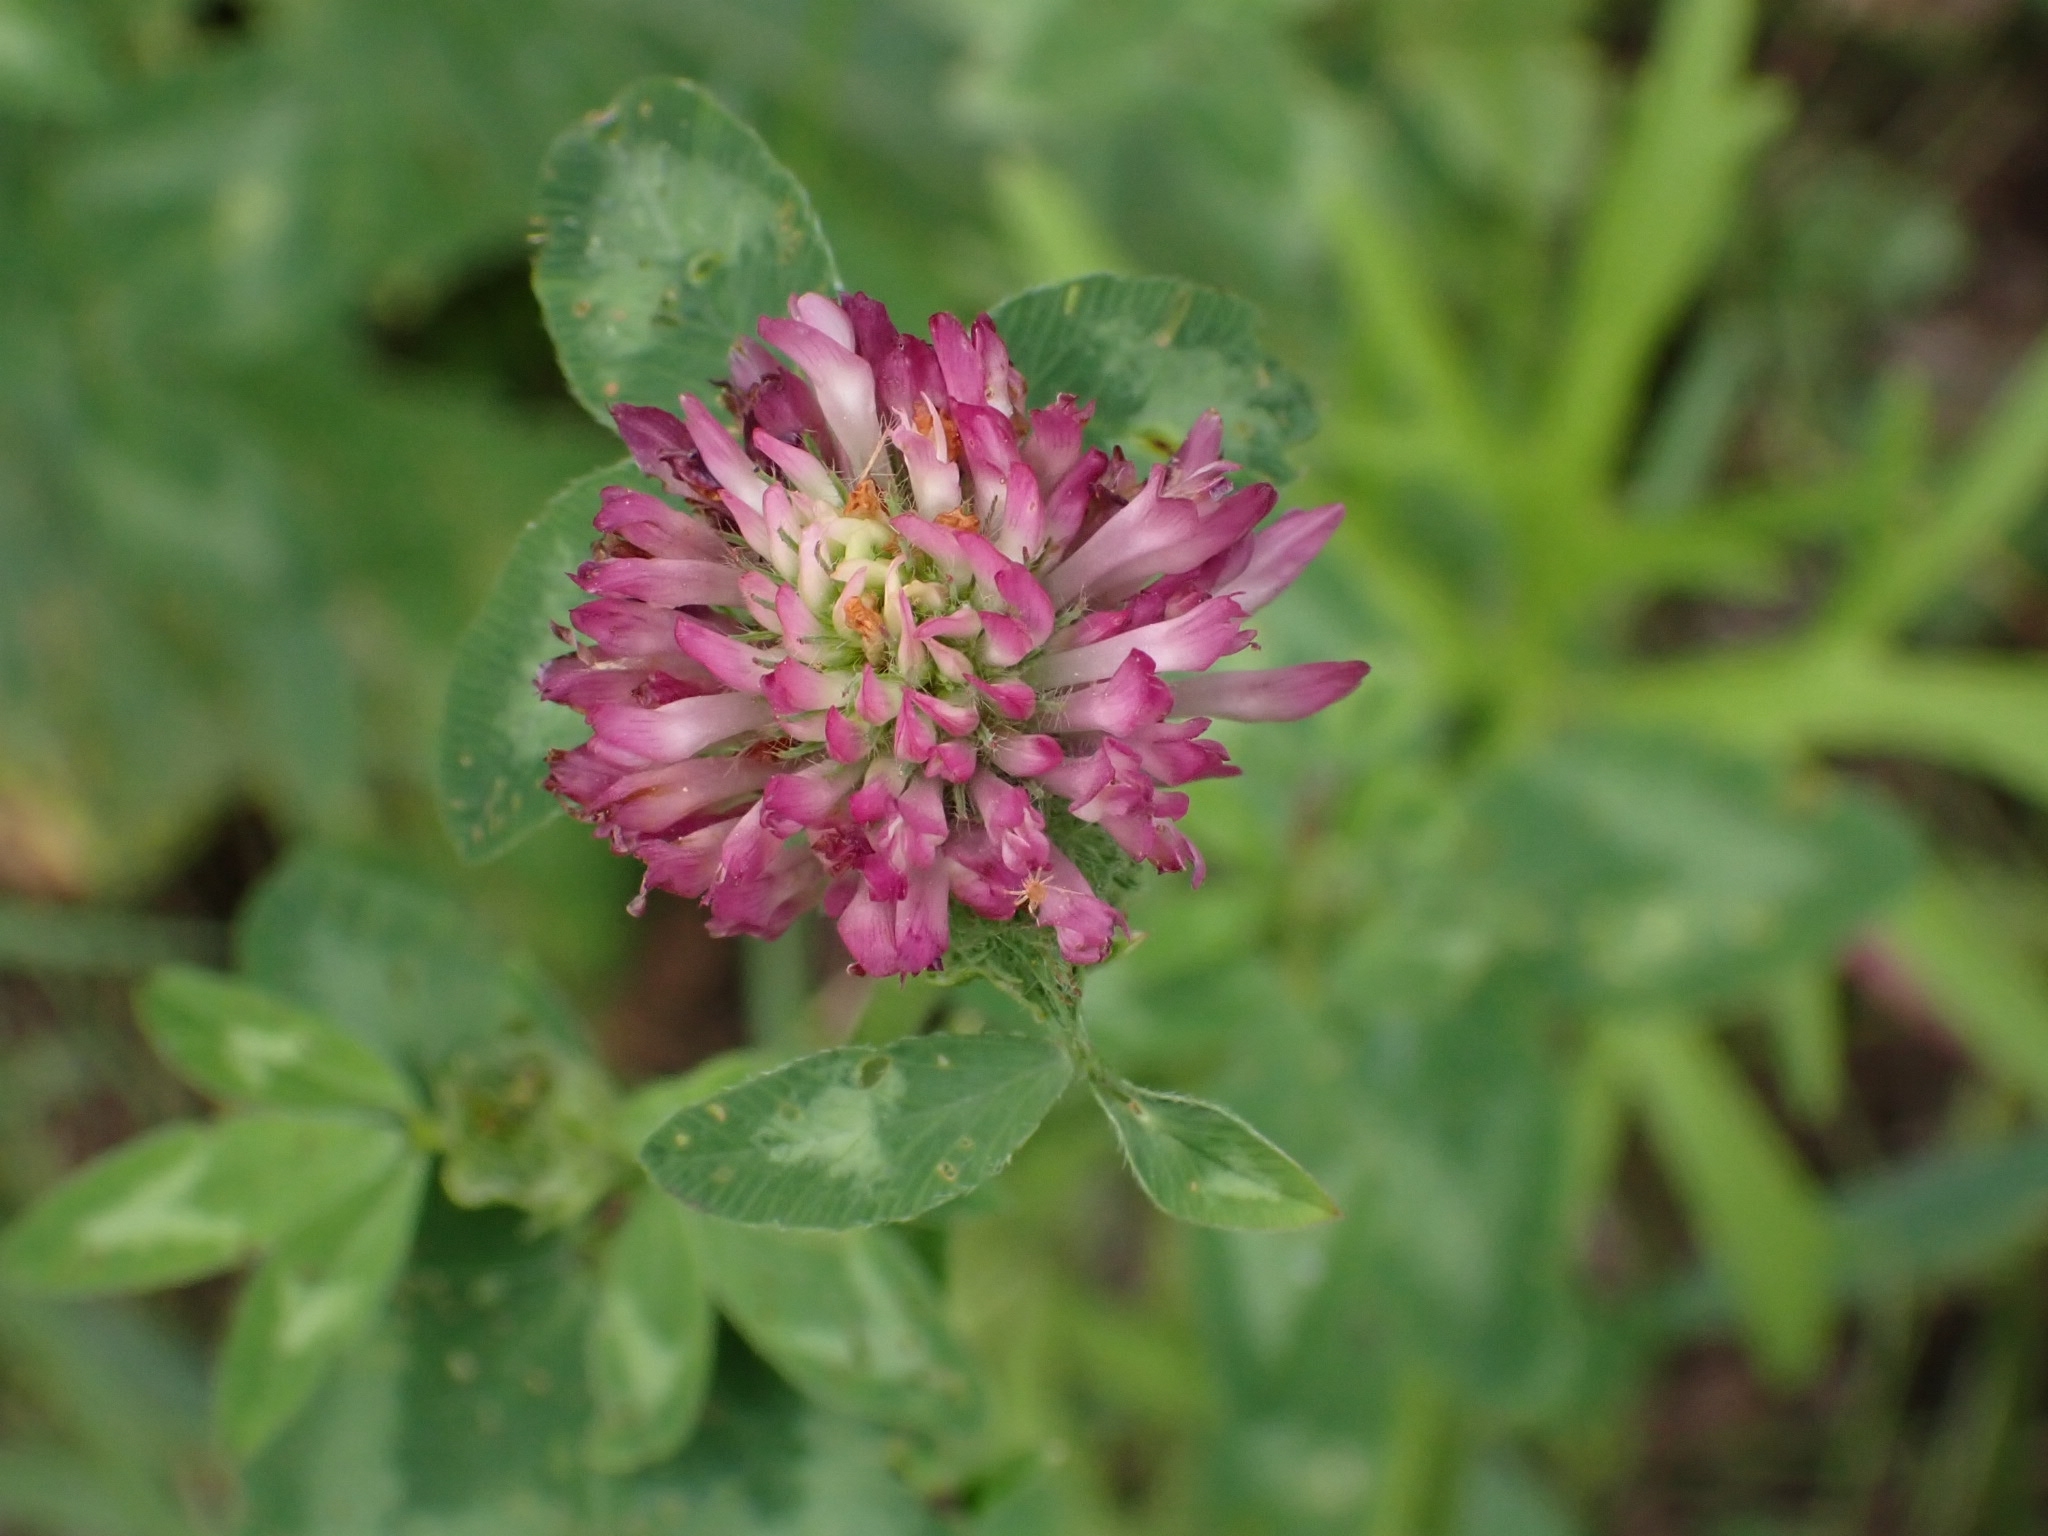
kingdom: Plantae
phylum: Tracheophyta
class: Magnoliopsida
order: Fabales
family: Fabaceae
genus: Trifolium
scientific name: Trifolium pratense
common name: Red clover
